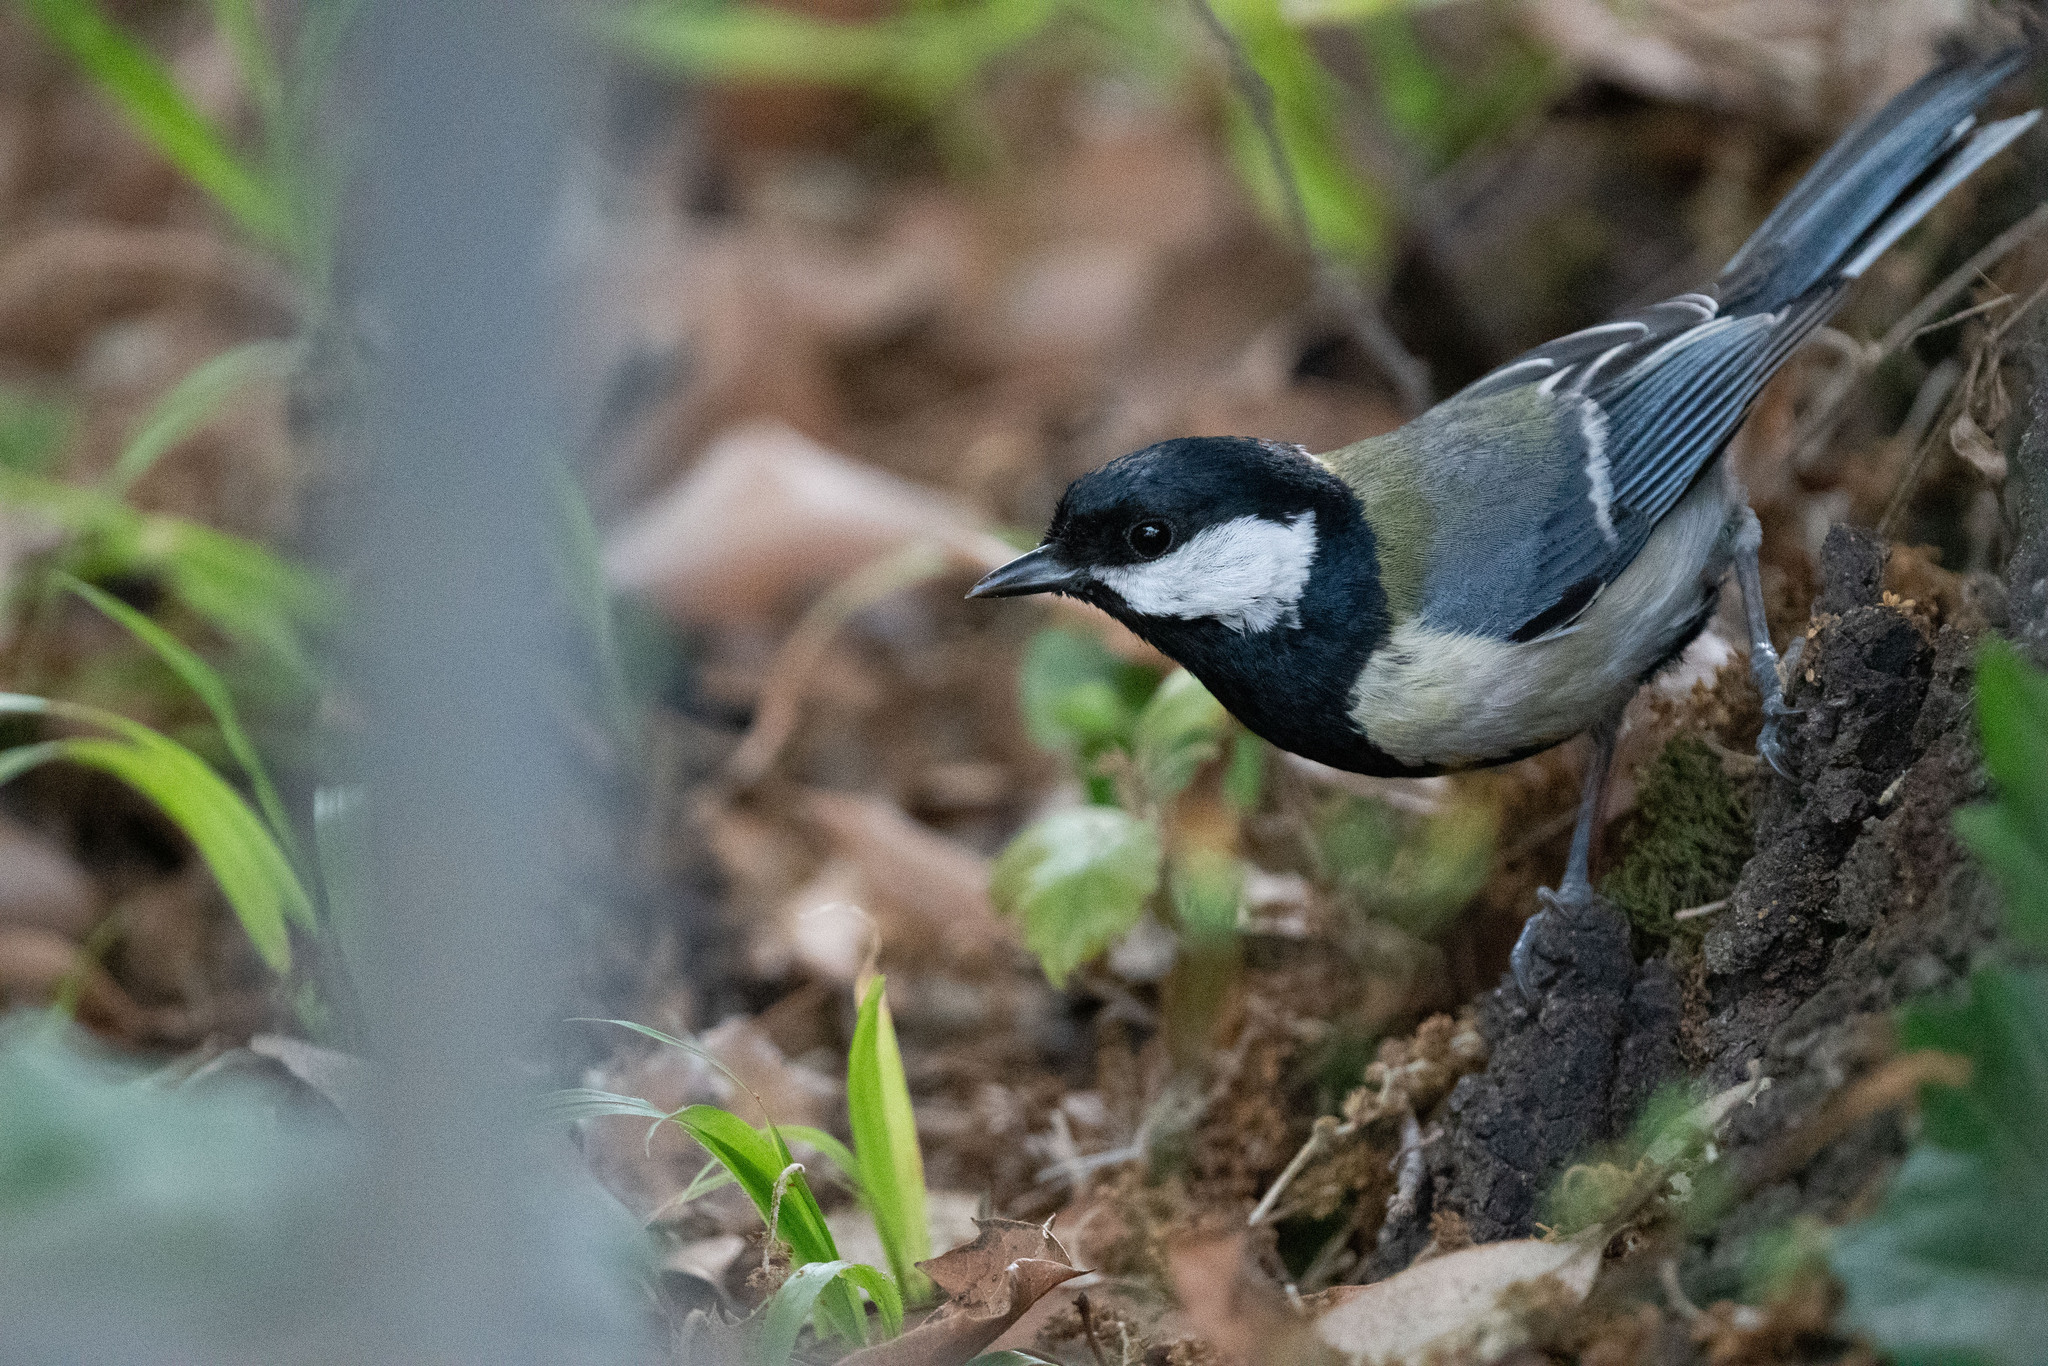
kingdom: Animalia
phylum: Chordata
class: Aves
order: Passeriformes
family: Paridae
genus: Parus
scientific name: Parus major
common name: Great tit
